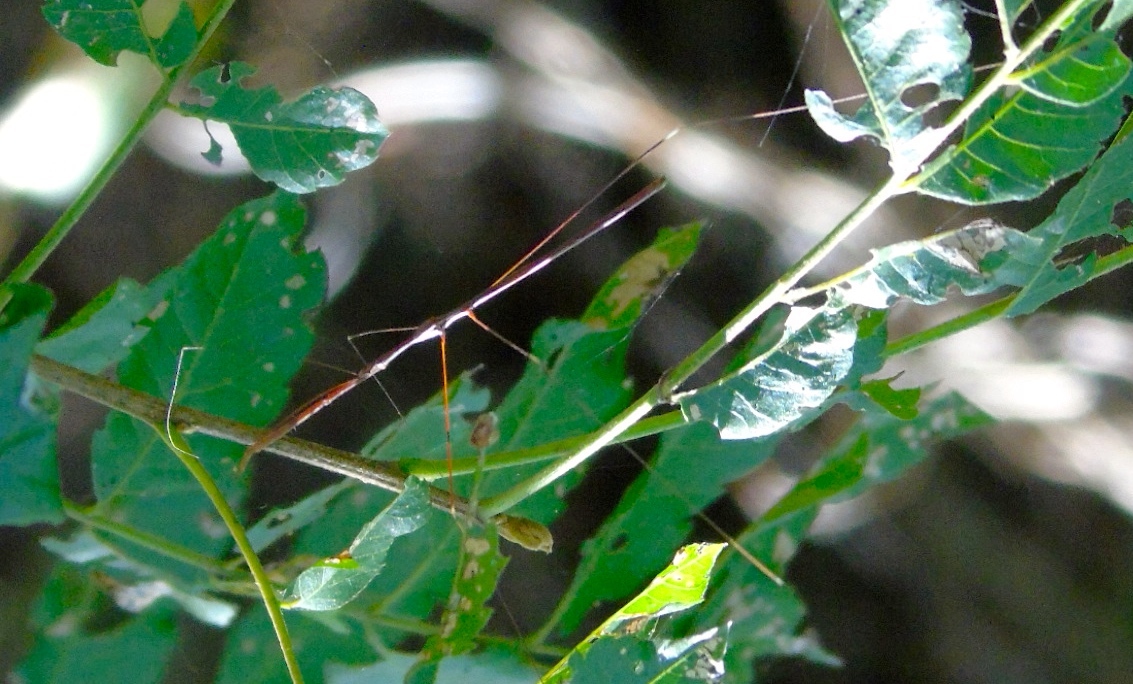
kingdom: Animalia
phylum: Arthropoda
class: Insecta
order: Hemiptera
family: Reduviidae
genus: Emesaya
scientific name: Emesaya brevipennis
